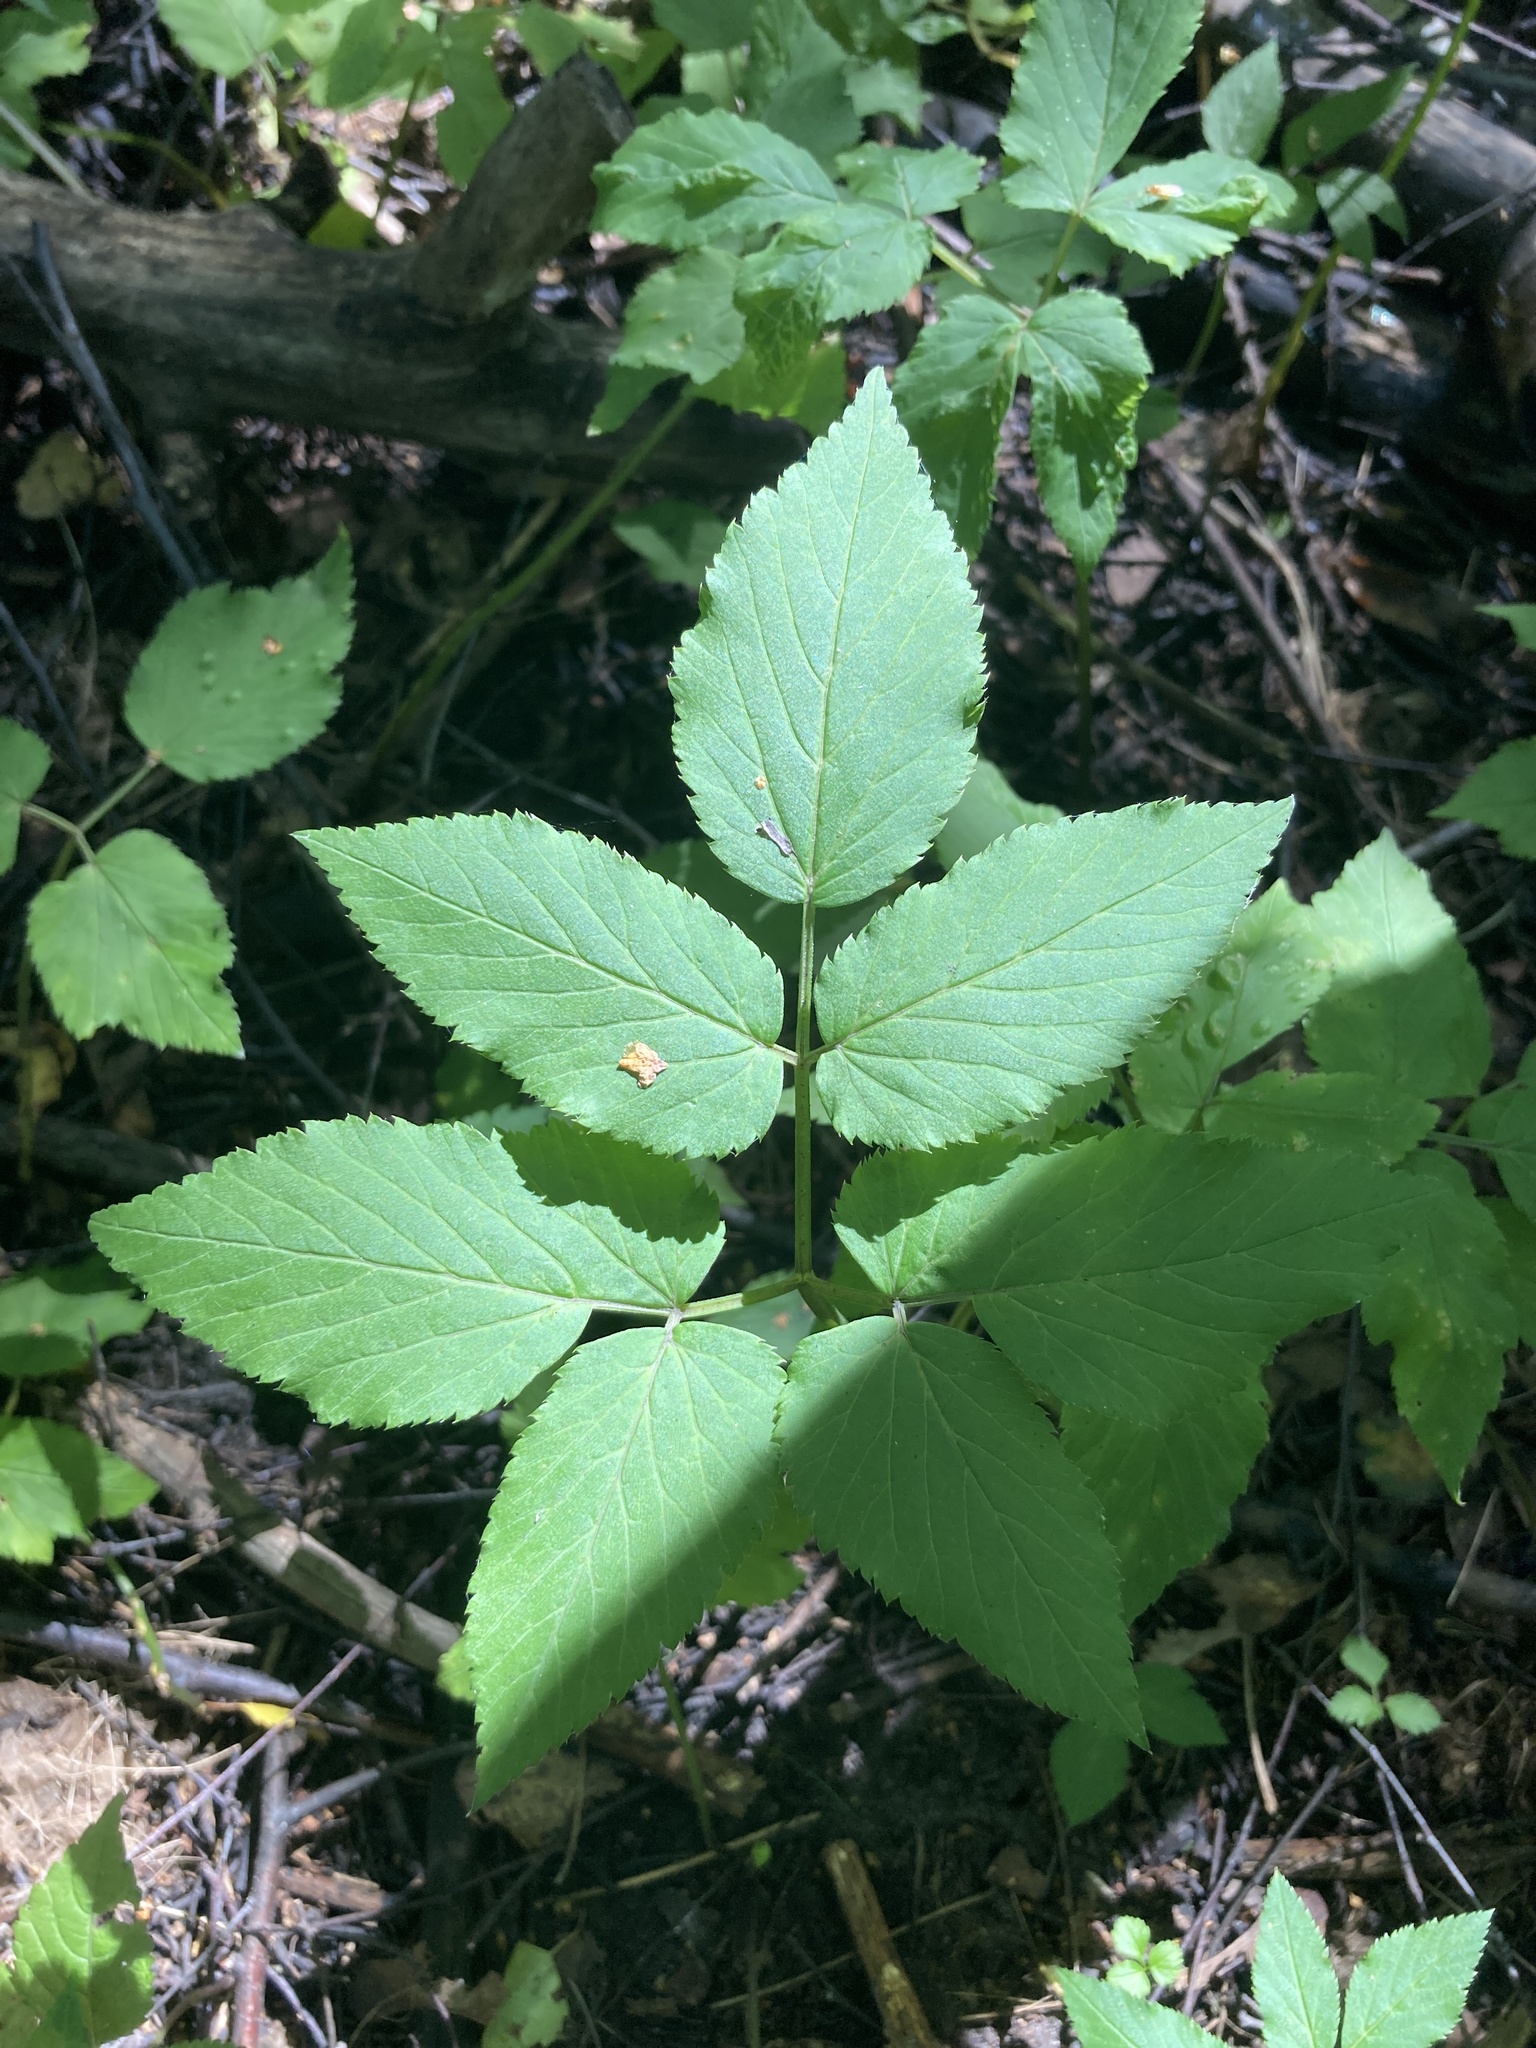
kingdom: Plantae
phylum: Tracheophyta
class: Magnoliopsida
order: Apiales
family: Apiaceae
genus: Aegopodium
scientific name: Aegopodium podagraria
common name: Ground-elder
